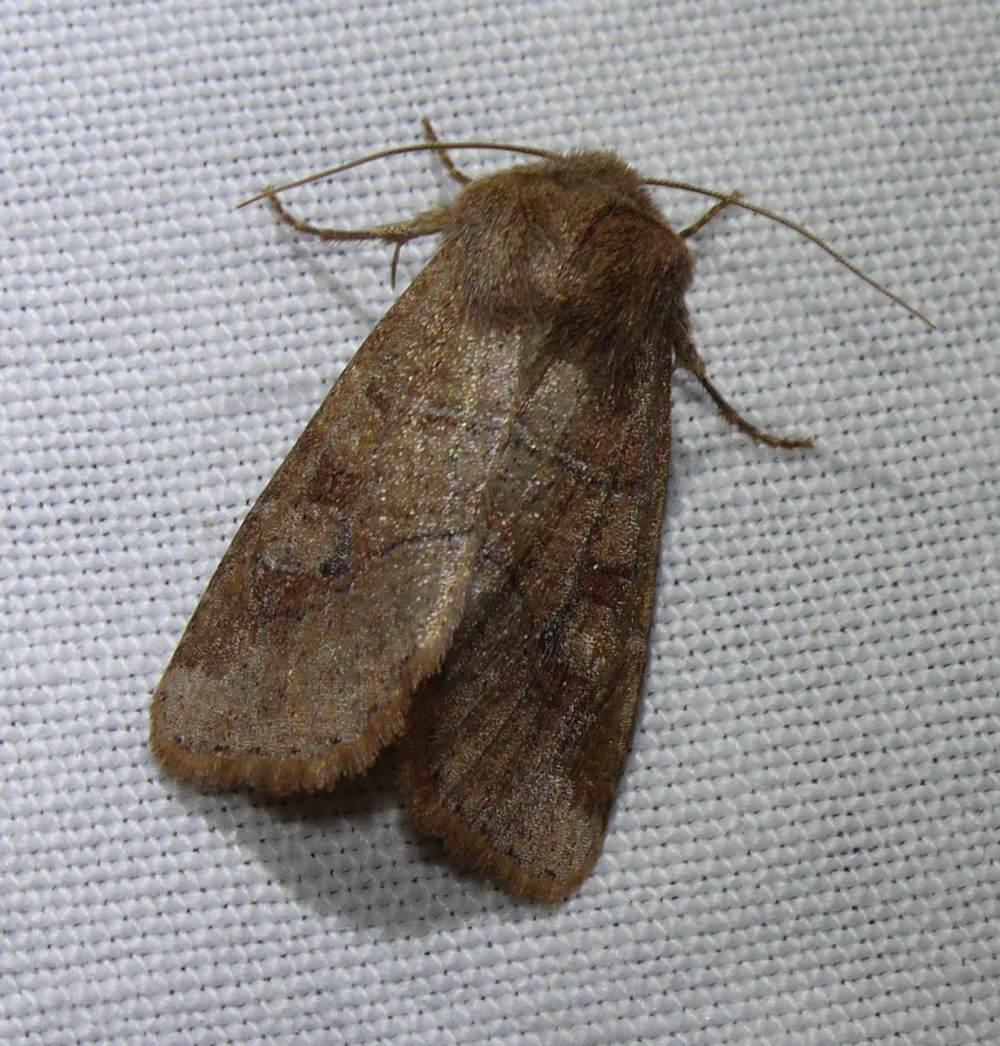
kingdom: Animalia
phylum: Arthropoda
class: Insecta
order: Lepidoptera
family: Noctuidae
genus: Crocigrapha
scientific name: Crocigrapha normani
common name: Norman's quaker
